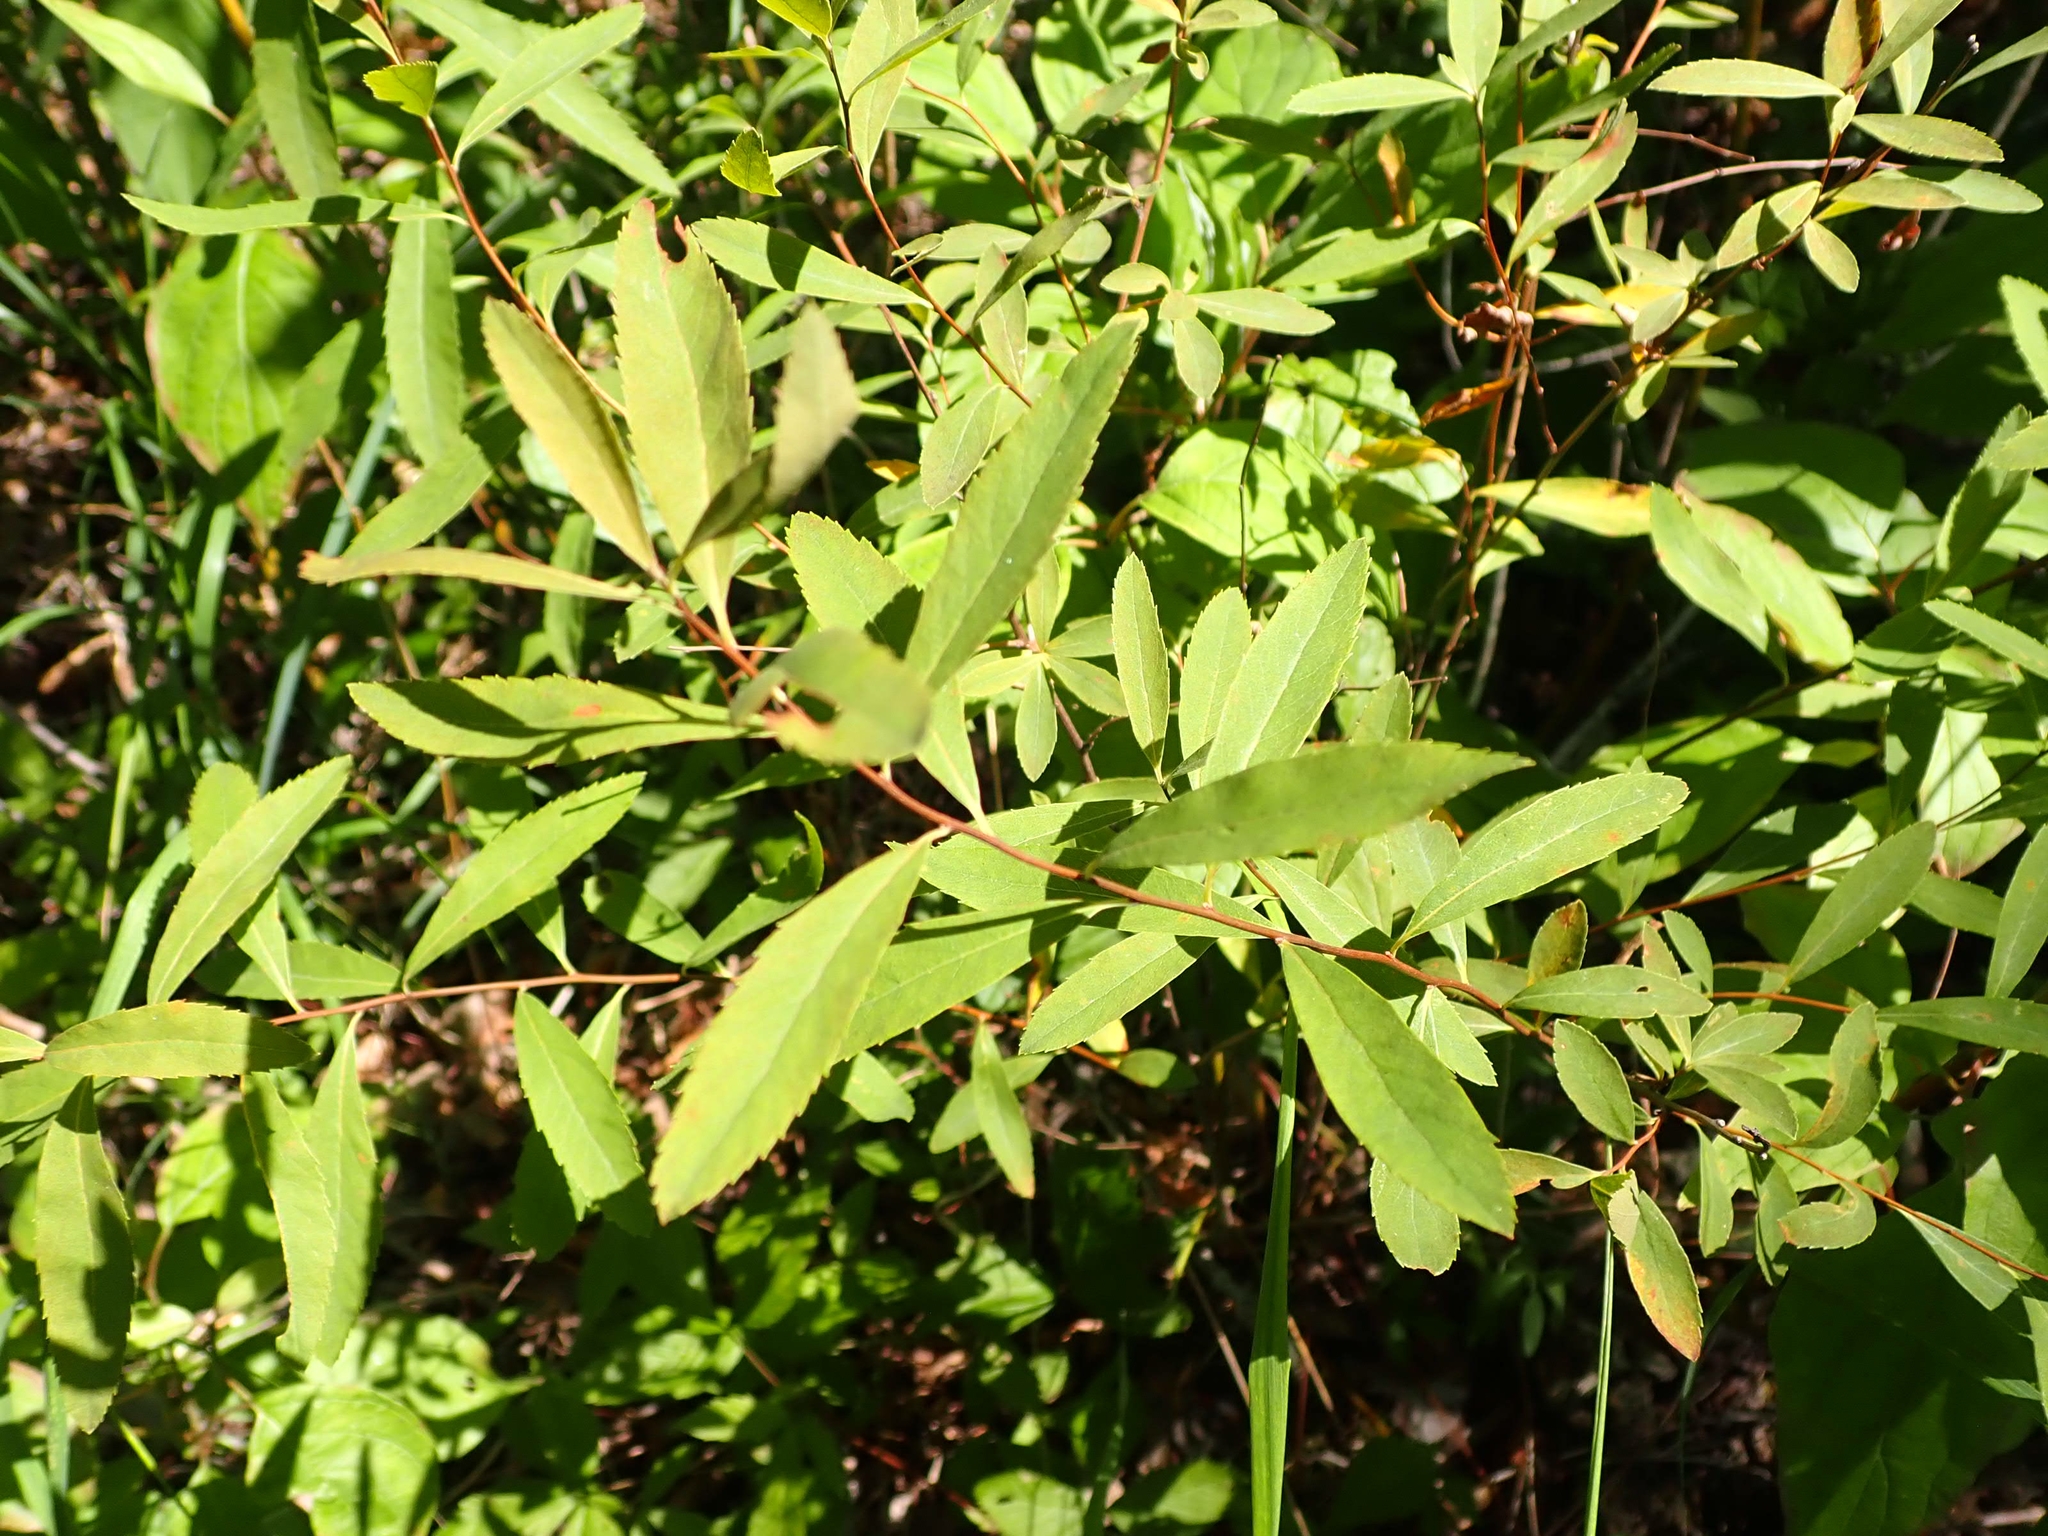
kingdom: Plantae
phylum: Tracheophyta
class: Magnoliopsida
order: Rosales
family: Rosaceae
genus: Spiraea
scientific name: Spiraea alba
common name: Pale bridewort
